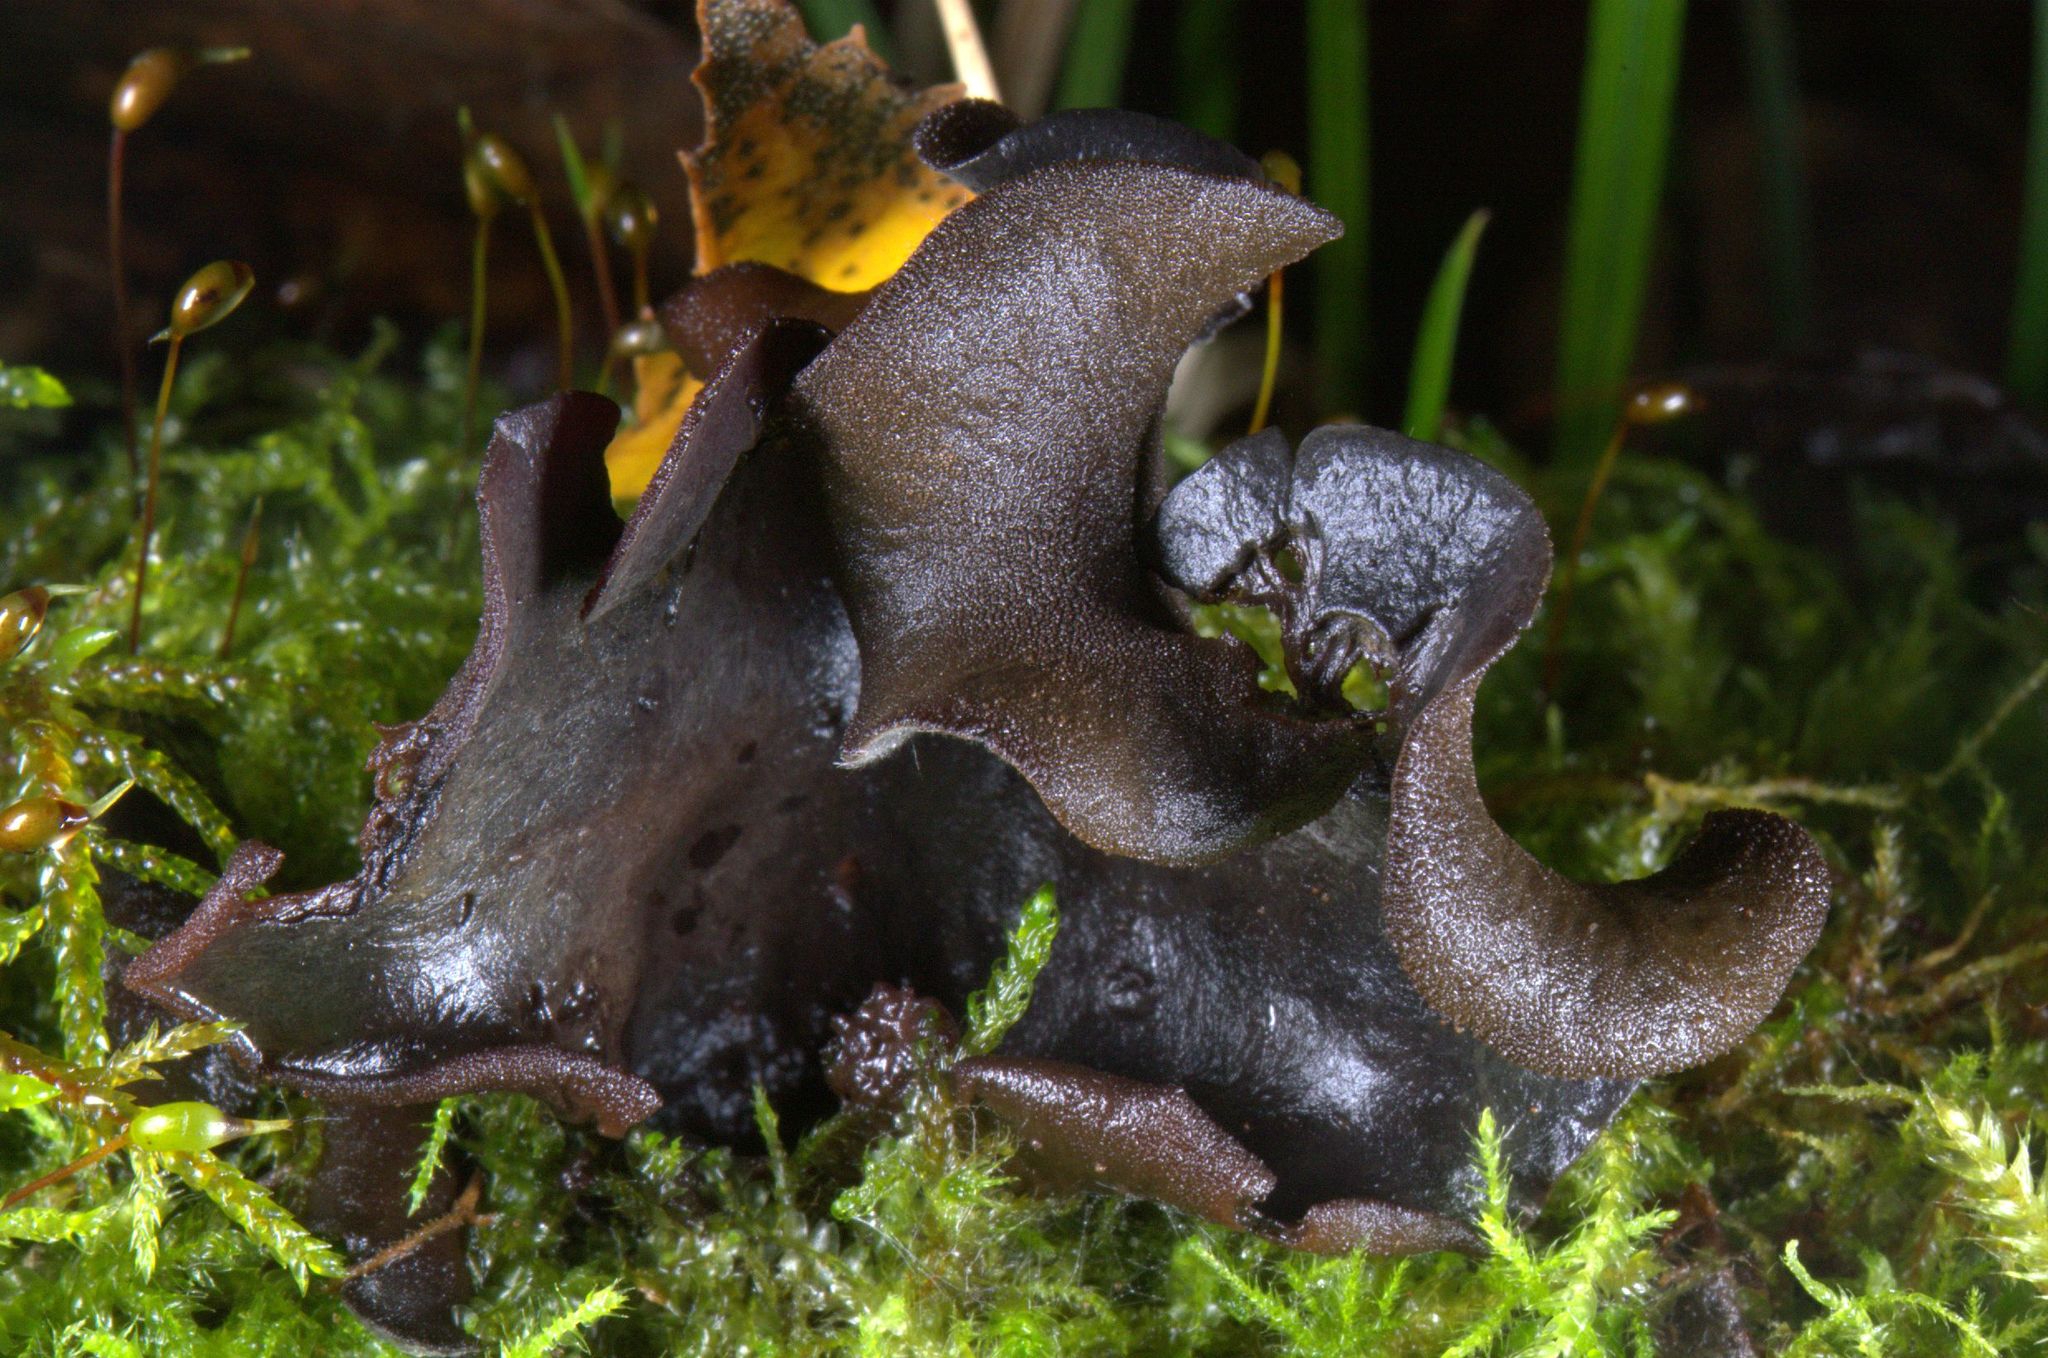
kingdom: Fungi
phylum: Ascomycota
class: Leotiomycetes
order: Helotiales
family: Cordieritidaceae
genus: Diplocarpa
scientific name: Diplocarpa irregularis
